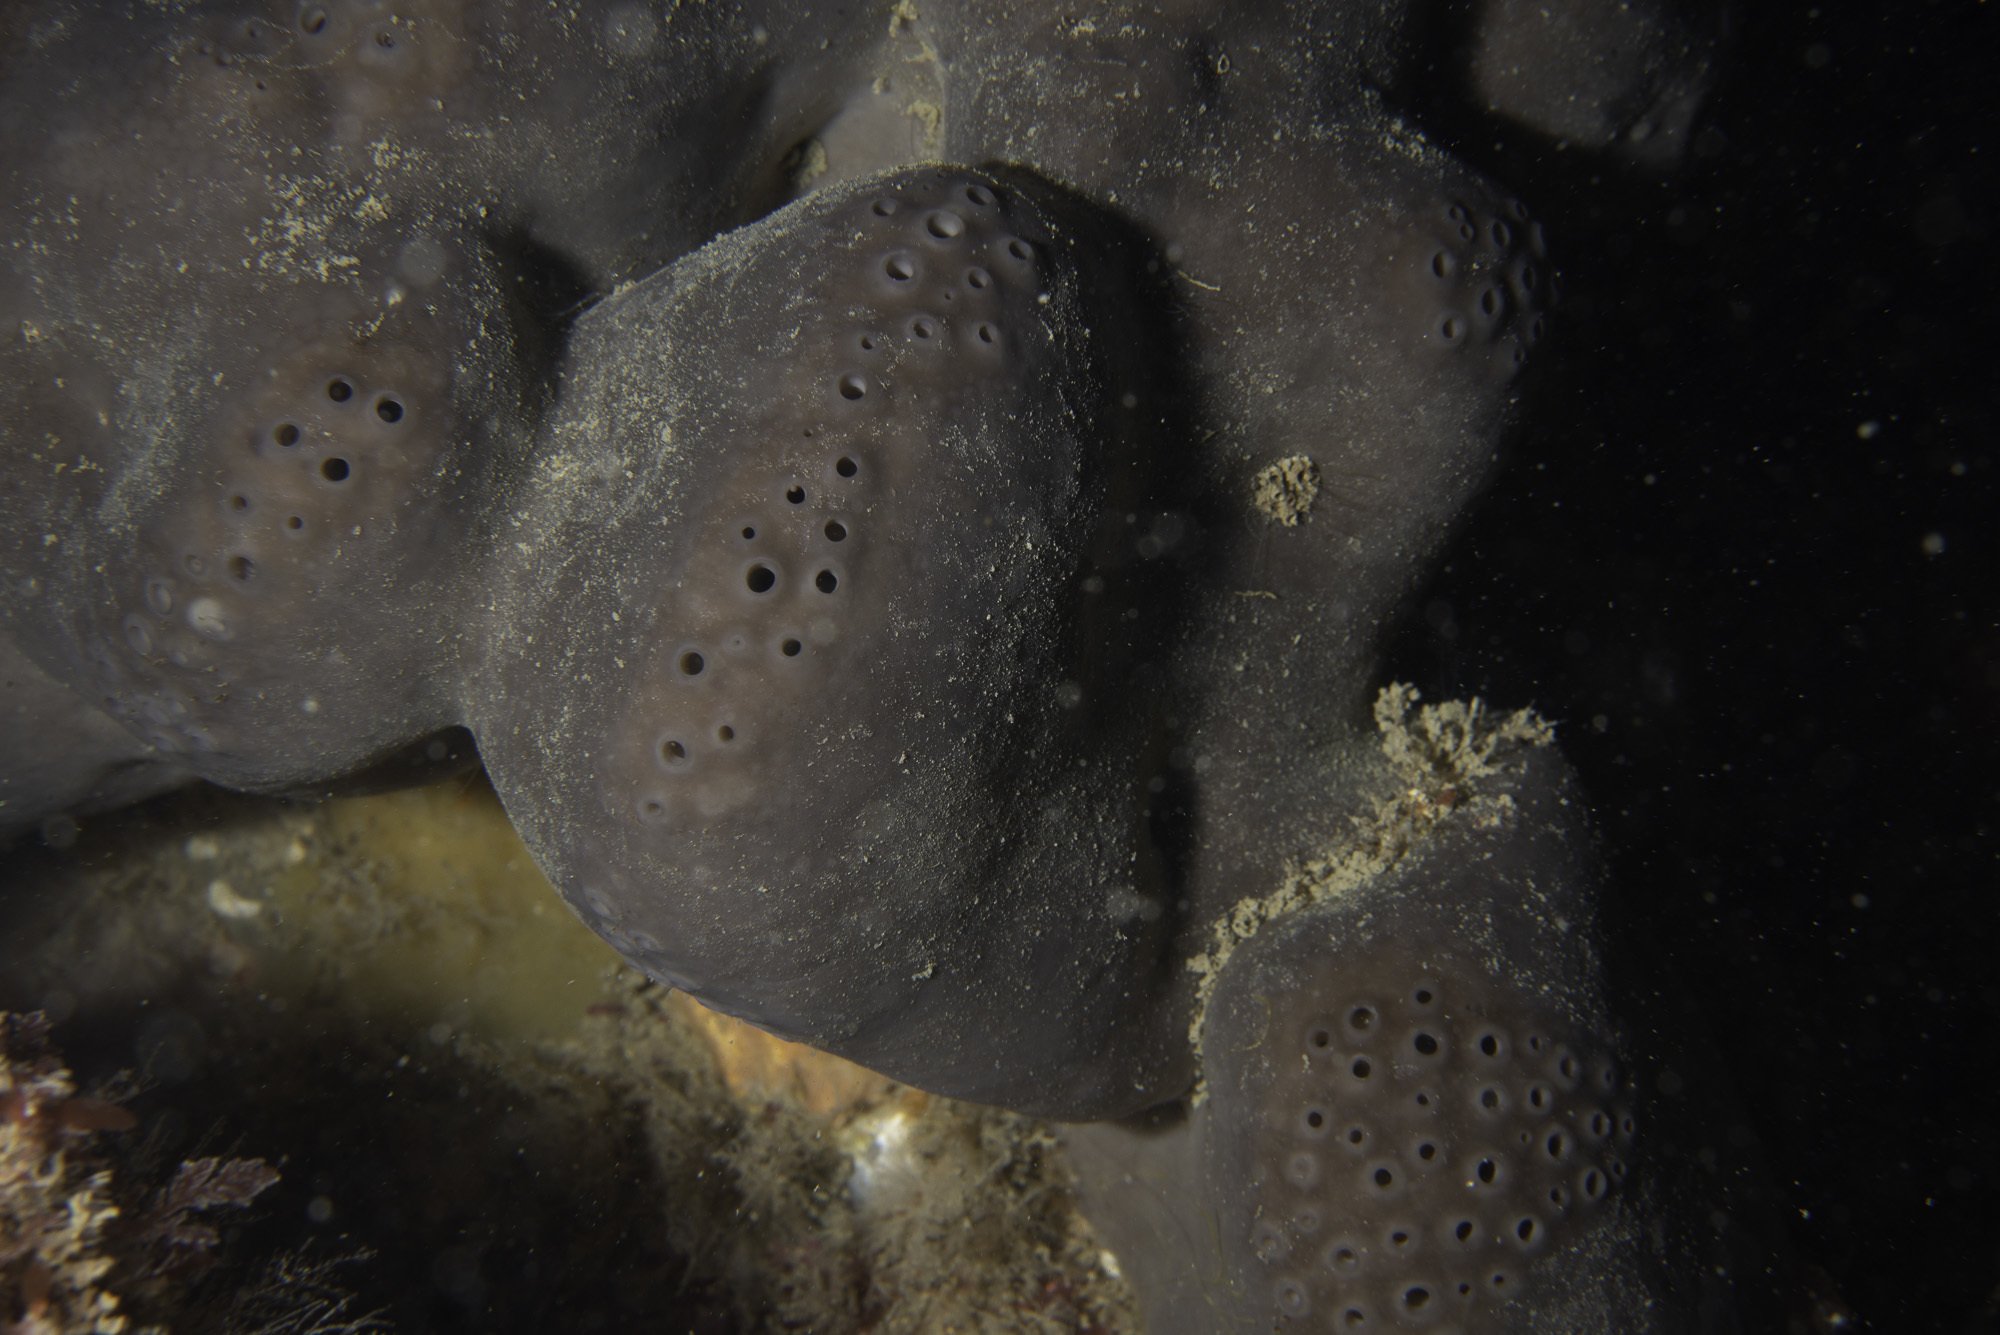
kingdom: Animalia
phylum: Porifera
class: Demospongiae
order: Tetractinellida
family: Geodiidae
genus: Pachymatisma
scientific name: Pachymatisma johnstonia
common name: Elephant ear sponge
